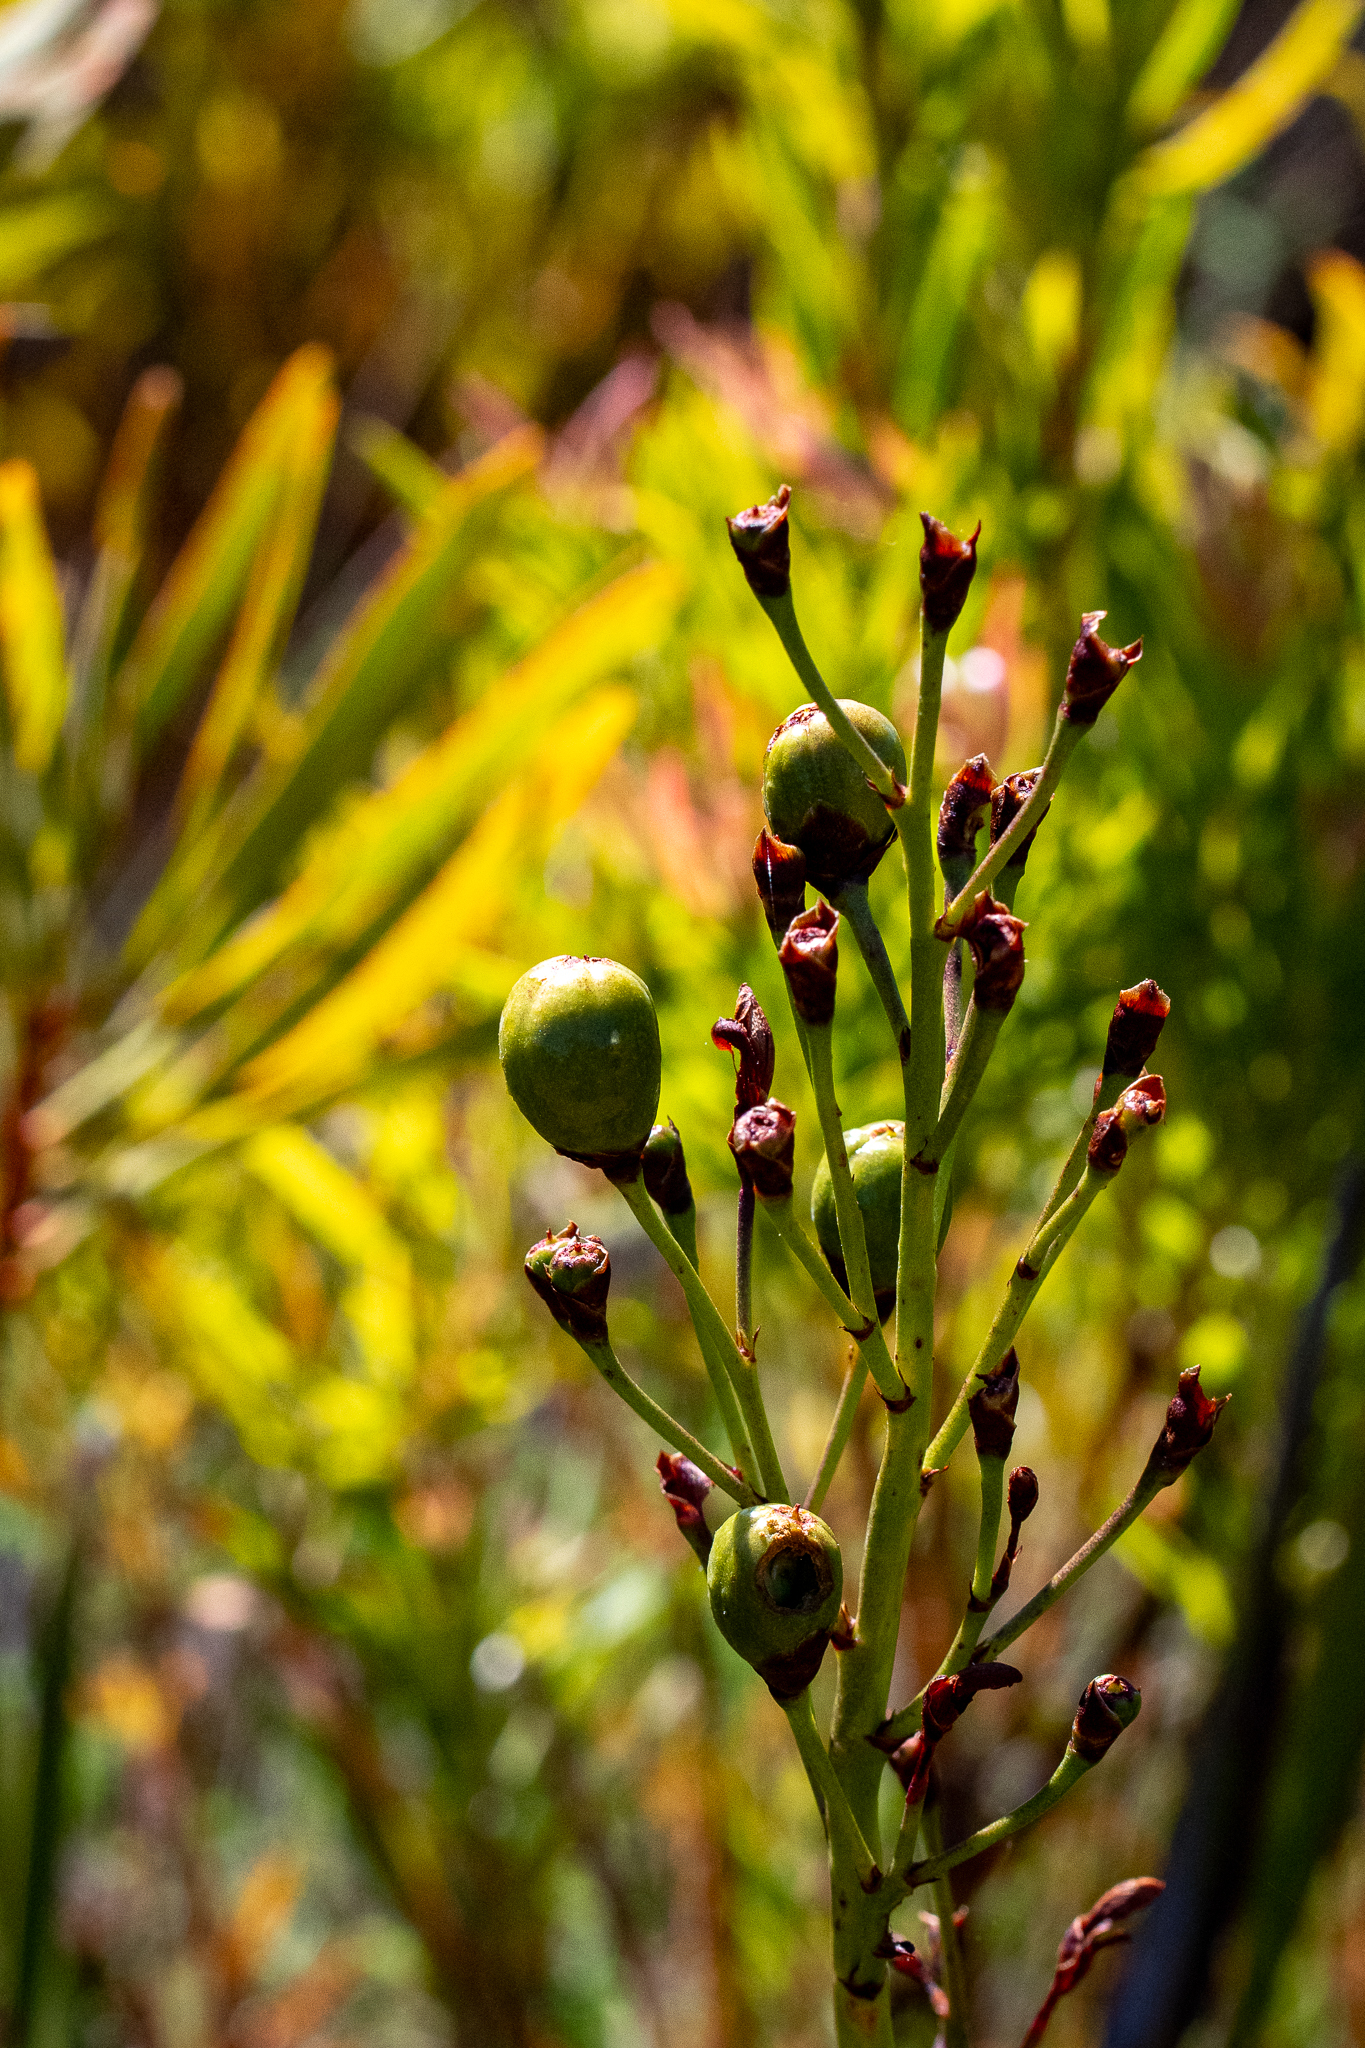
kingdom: Plantae
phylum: Tracheophyta
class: Liliopsida
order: Asparagales
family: Iridaceae
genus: Pillansia
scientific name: Pillansia templemannii
